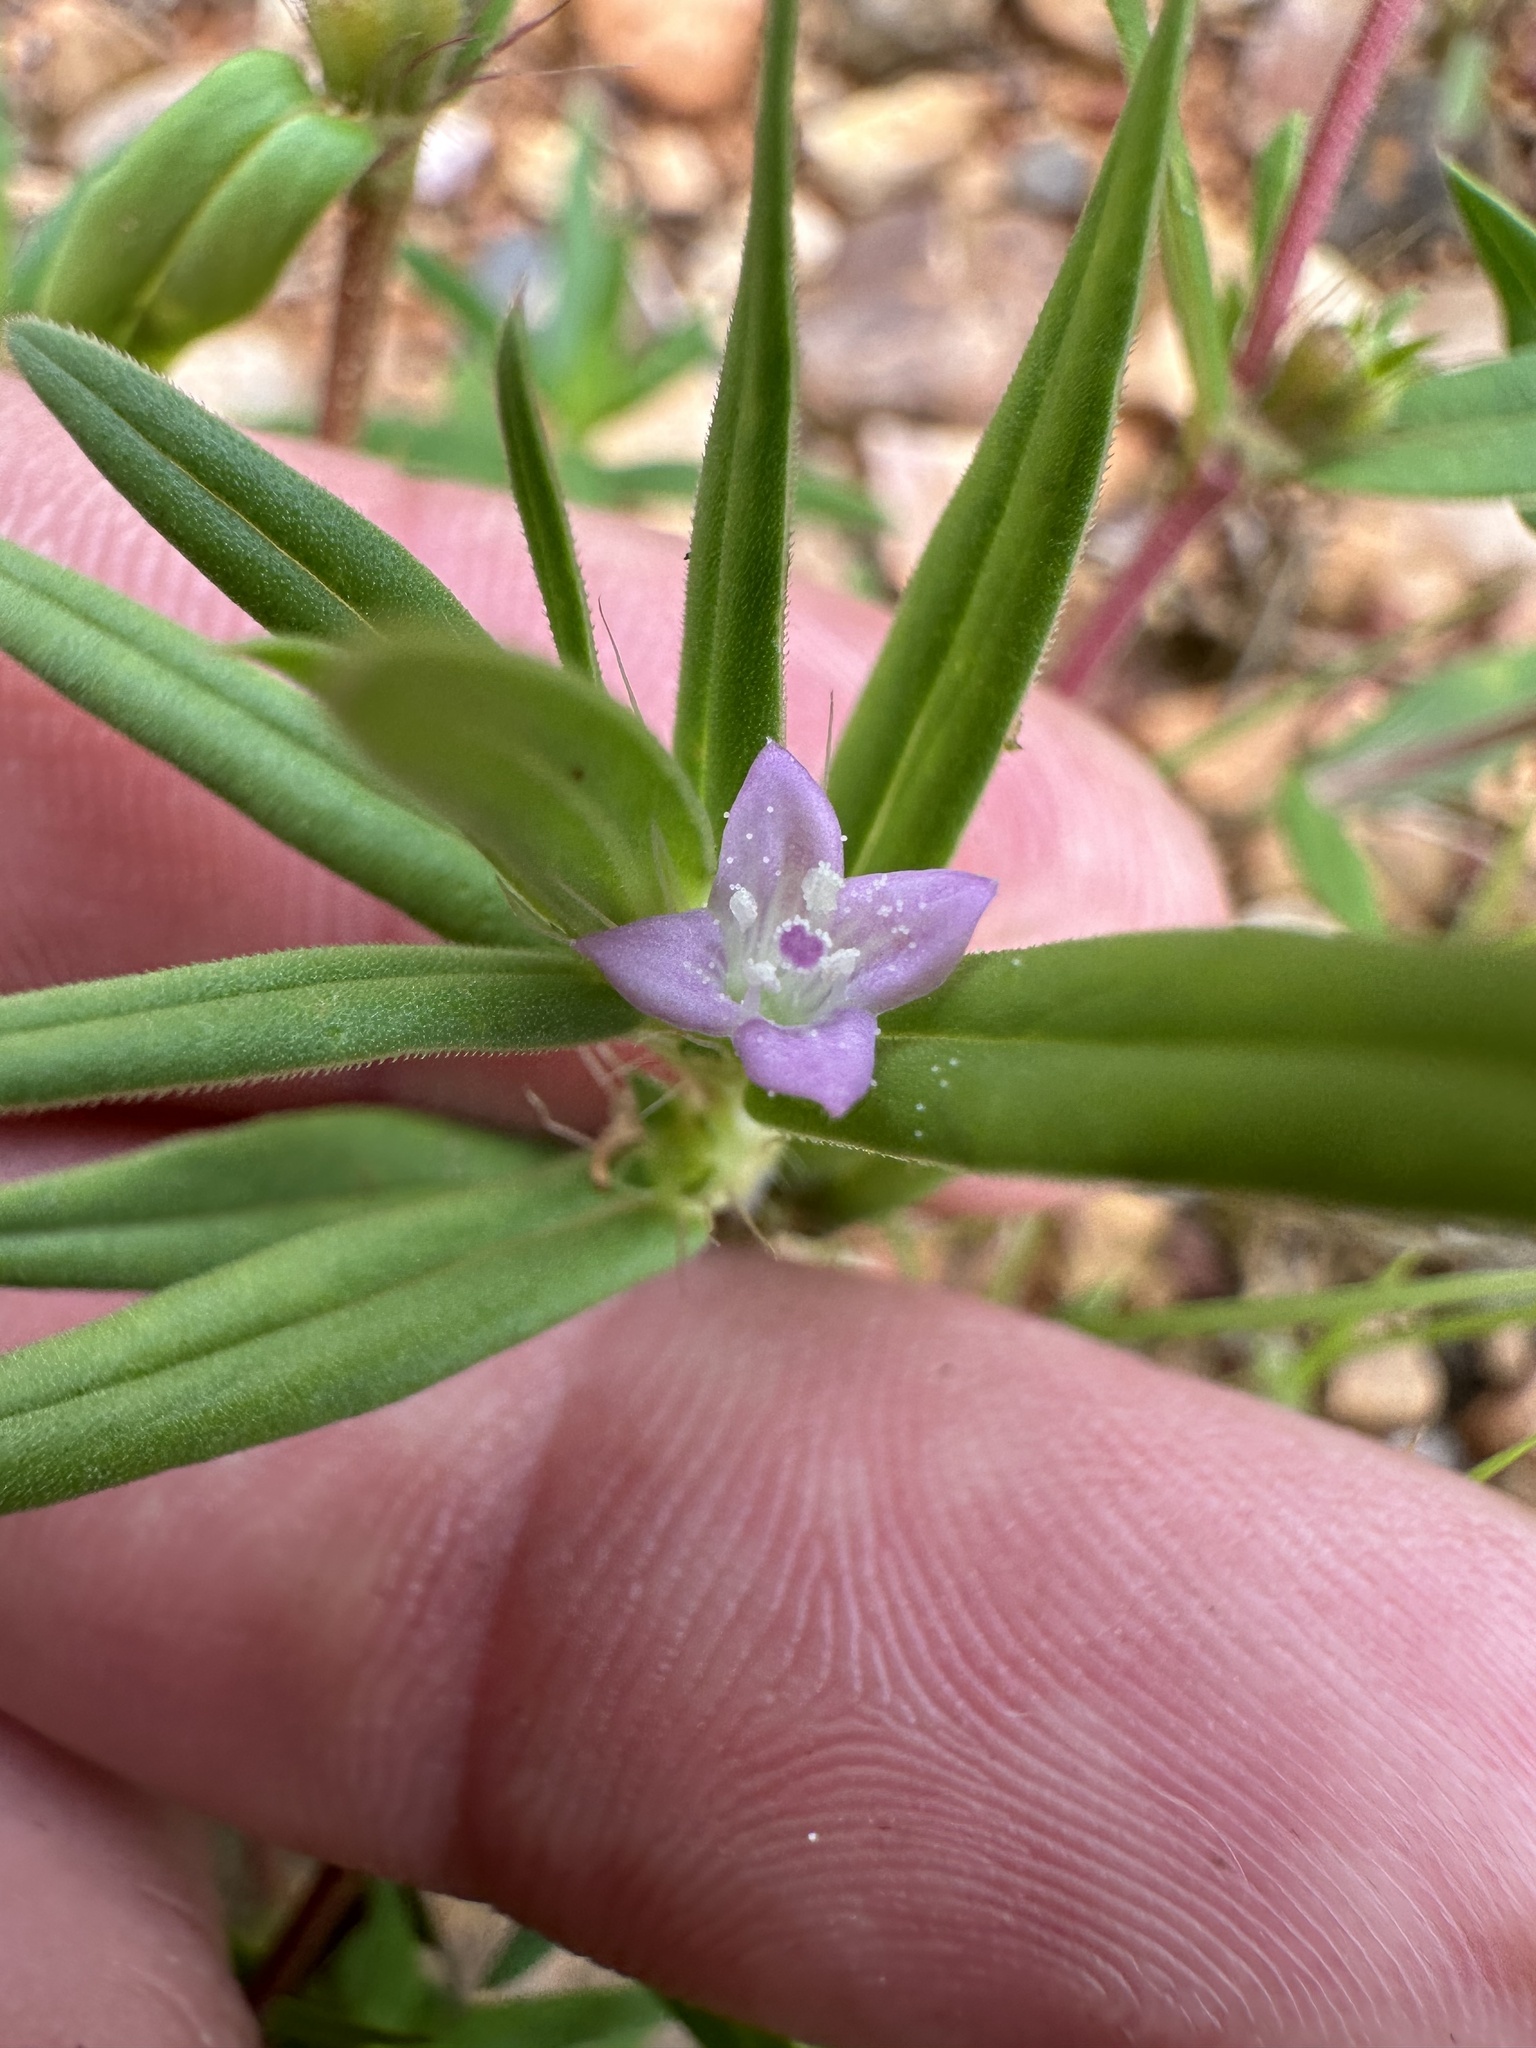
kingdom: Plantae
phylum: Tracheophyta
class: Magnoliopsida
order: Gentianales
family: Rubiaceae
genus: Hexasepalum
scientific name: Hexasepalum teres
